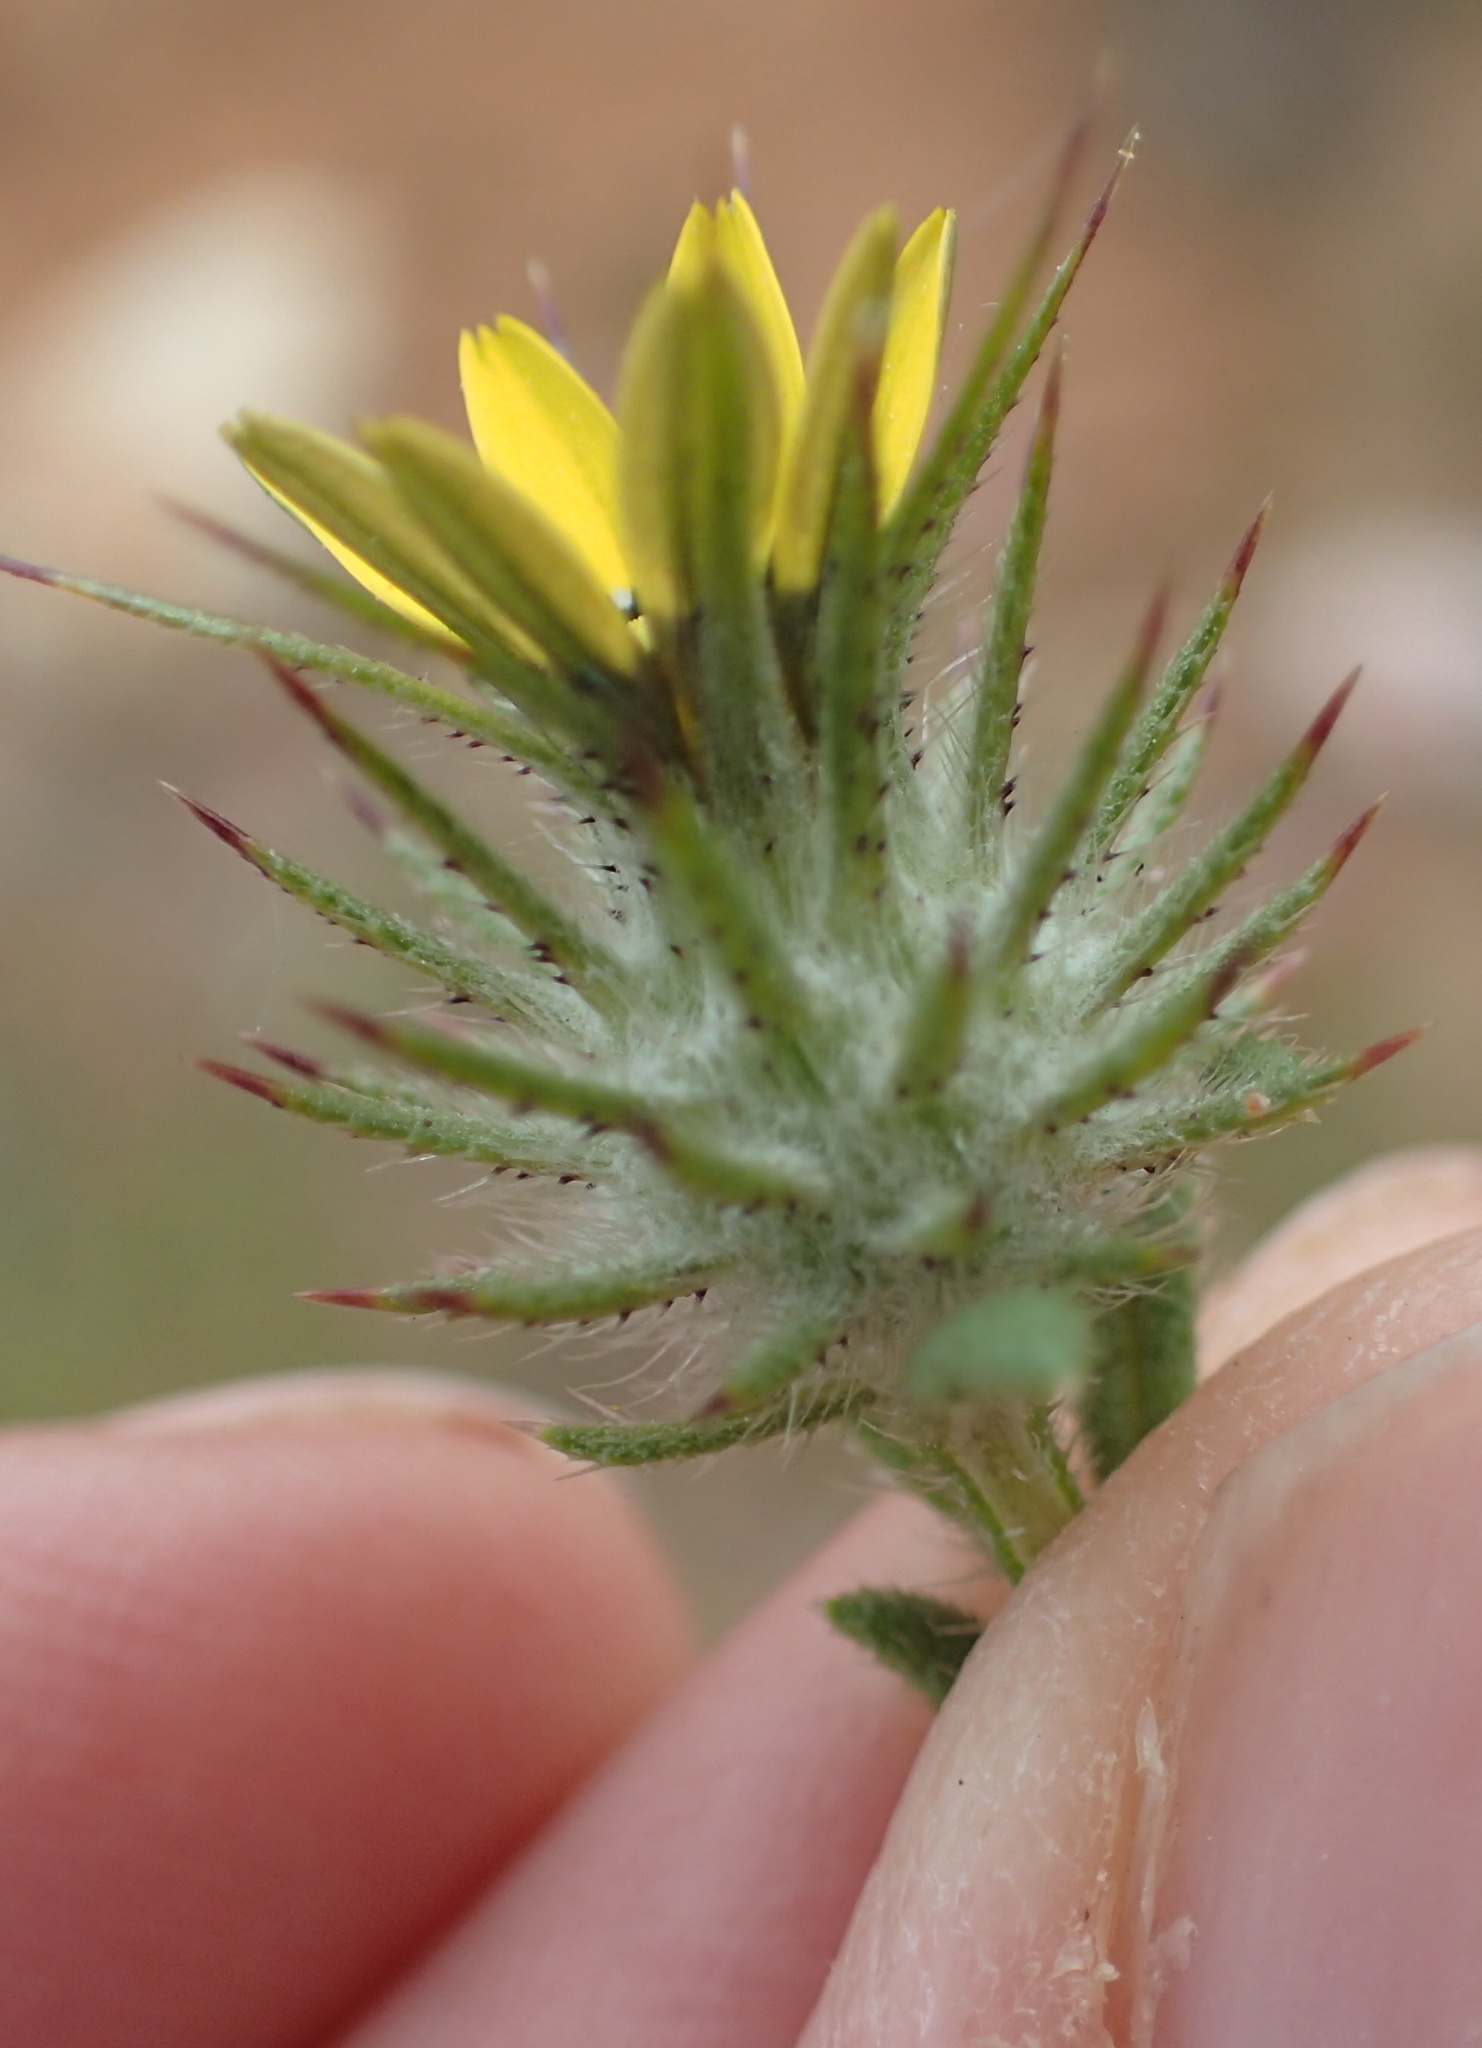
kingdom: Plantae
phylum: Tracheophyta
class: Magnoliopsida
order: Asterales
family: Asteraceae
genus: Gorteria
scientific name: Gorteria personata
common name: Gorteria
